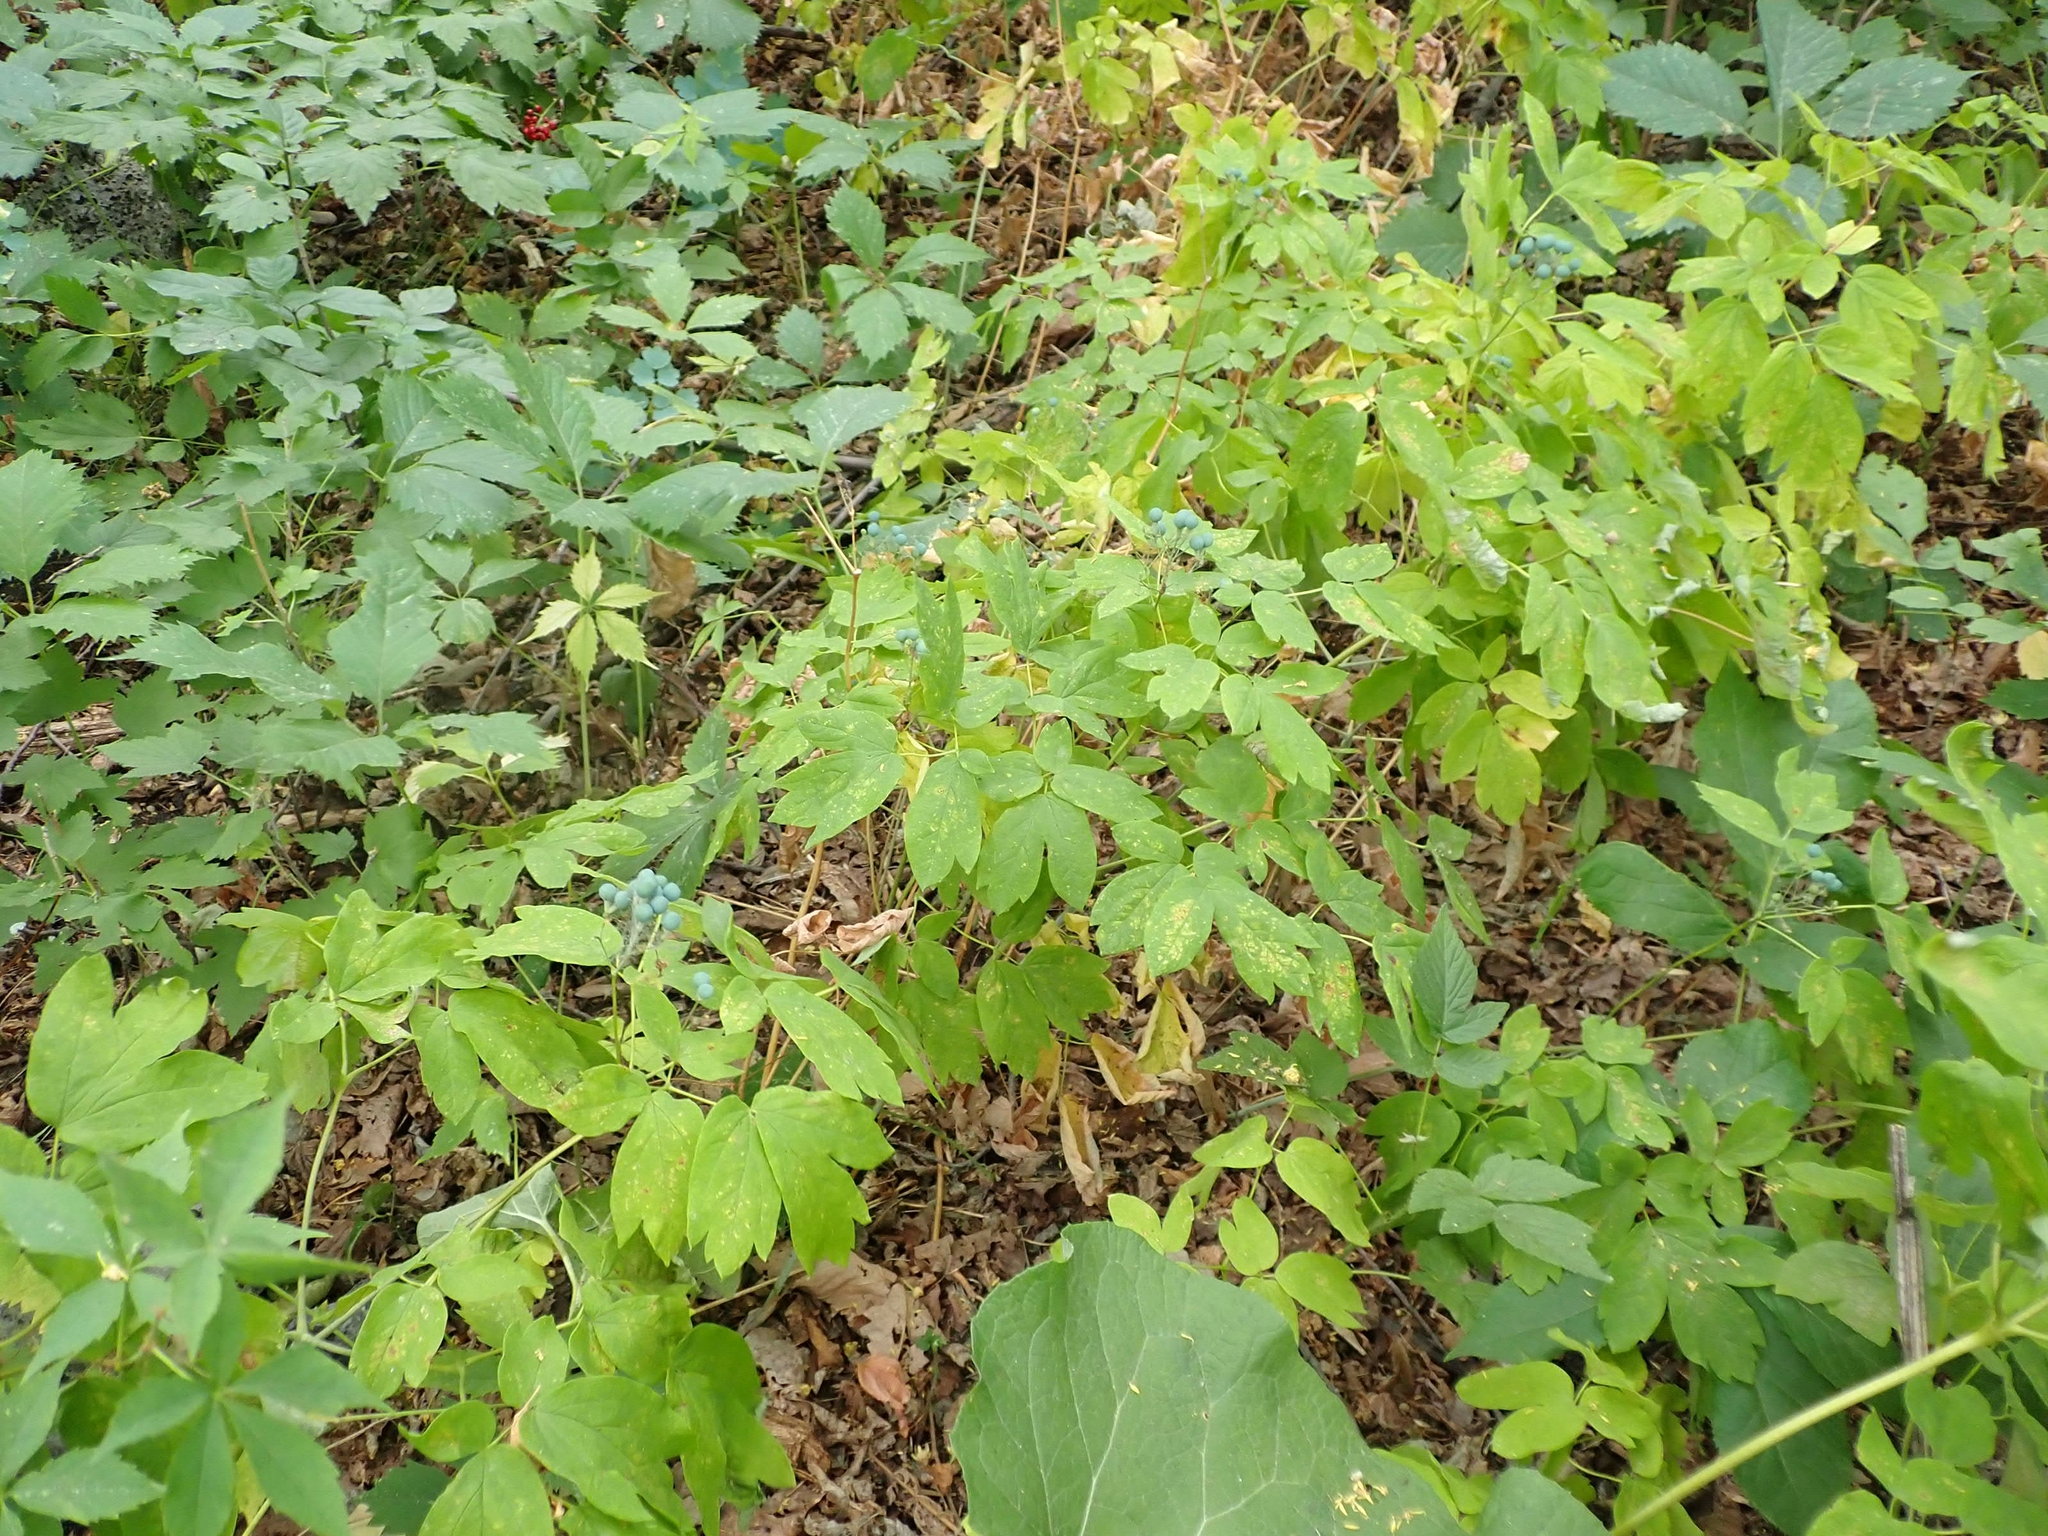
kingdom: Plantae
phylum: Tracheophyta
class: Magnoliopsida
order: Ranunculales
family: Berberidaceae
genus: Caulophyllum
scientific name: Caulophyllum thalictroides
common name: Blue cohosh
